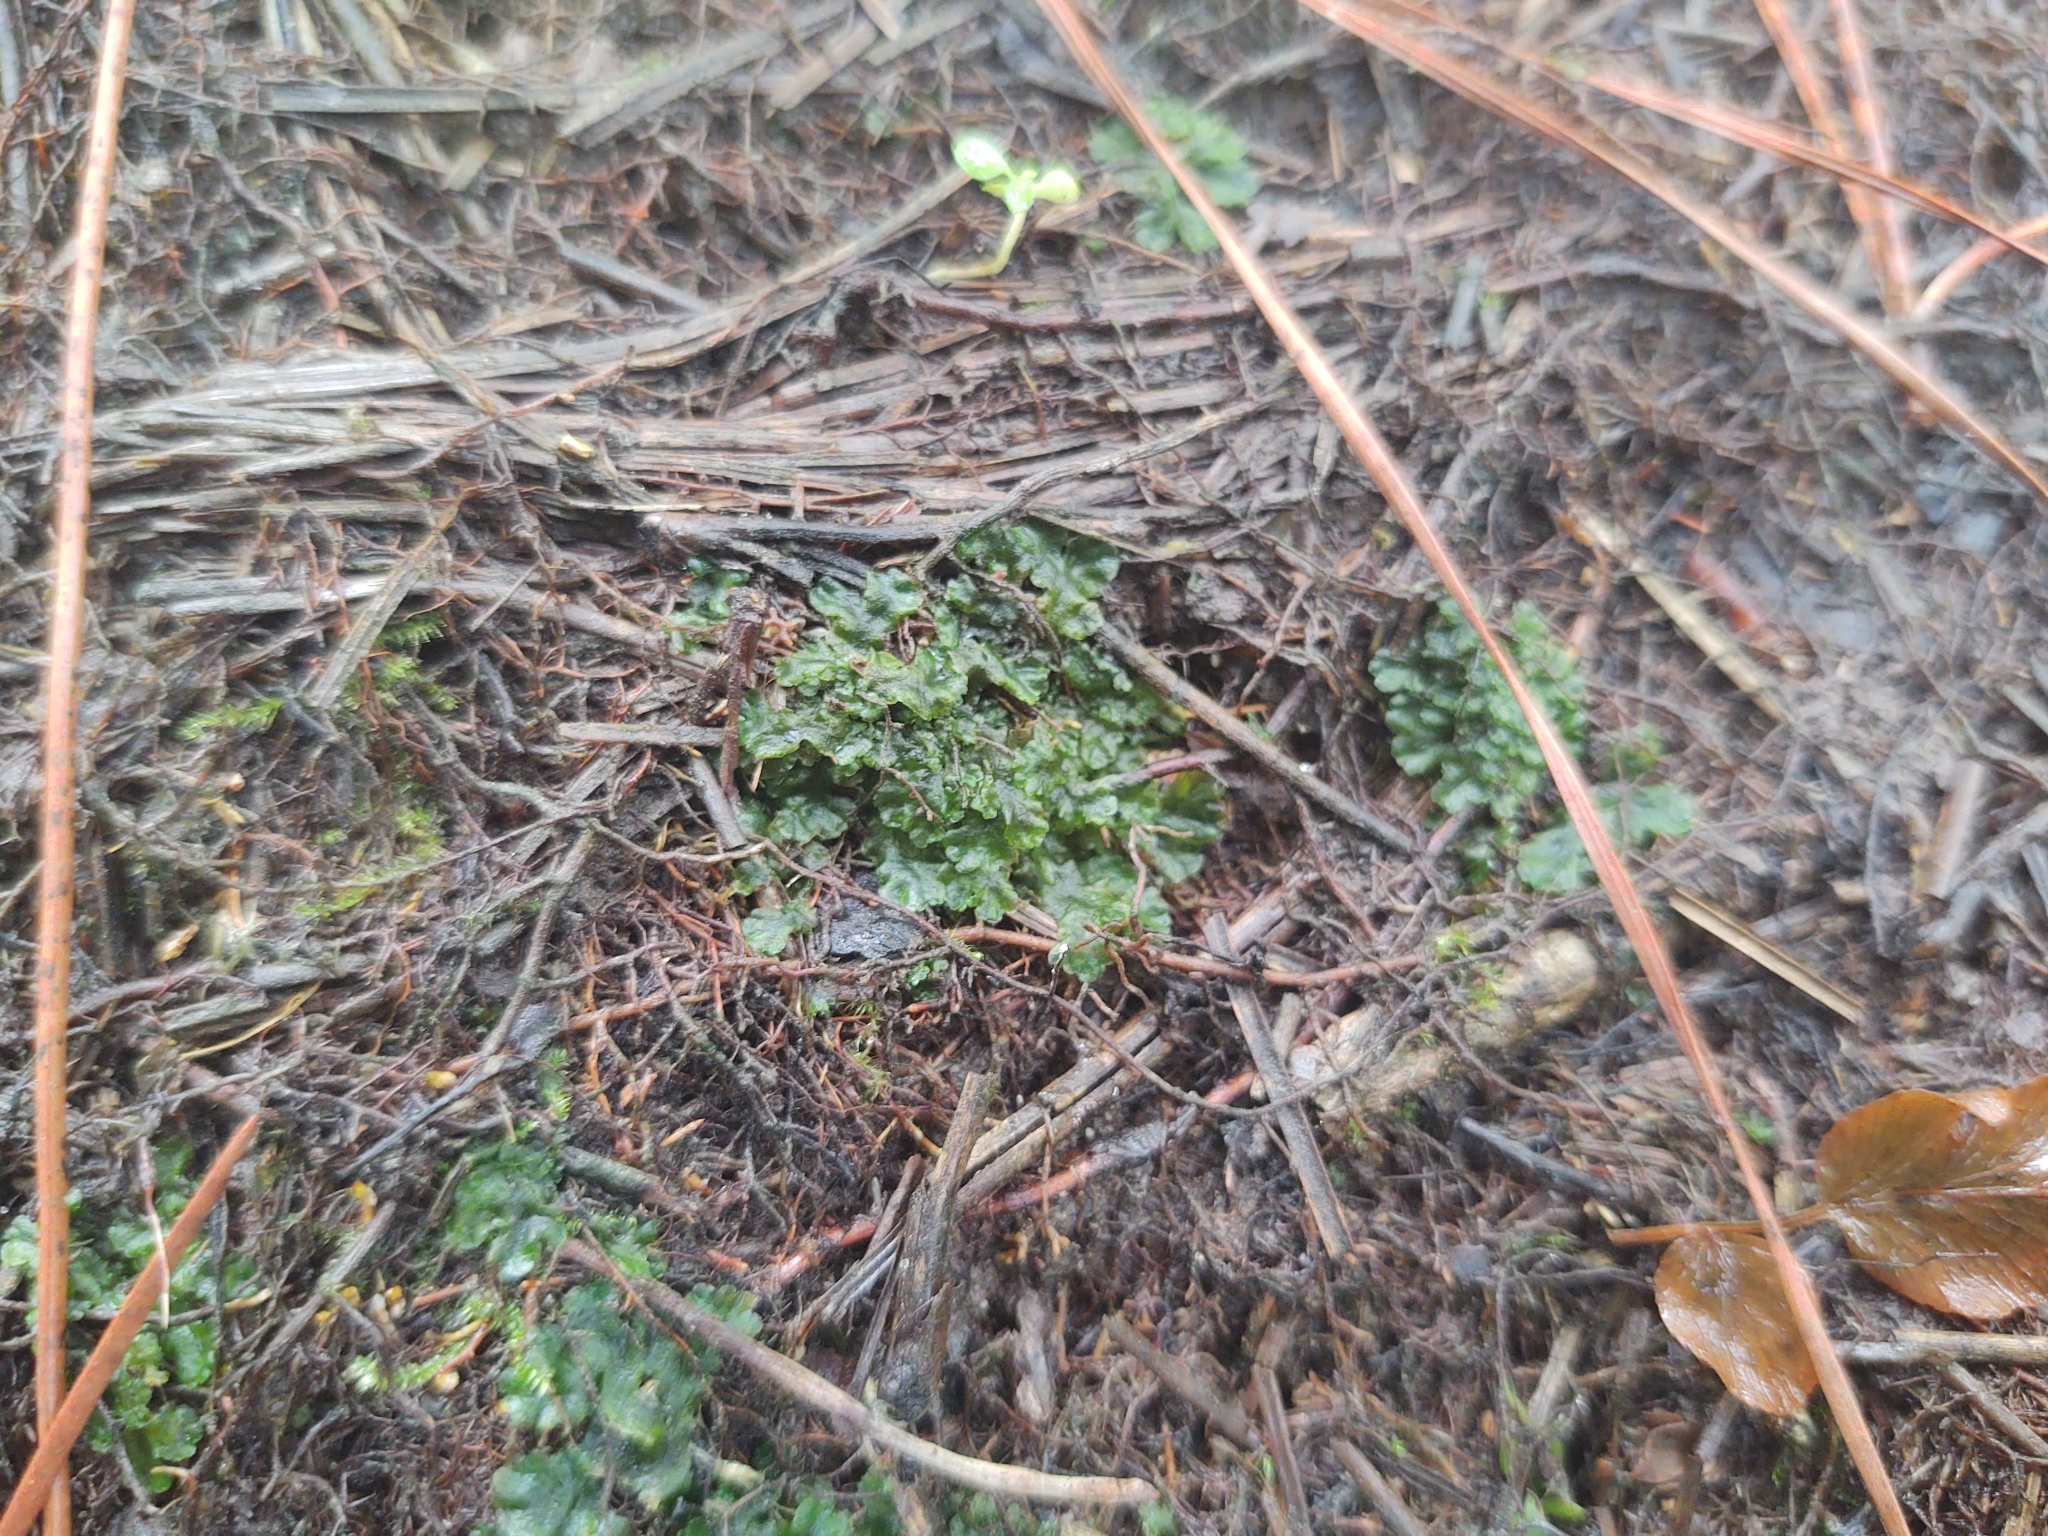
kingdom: Plantae
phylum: Anthocerotophyta
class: Anthocerotopsida
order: Notothyladales
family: Notothyladaceae
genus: Phaeoceros
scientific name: Phaeoceros carolinianus
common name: Carolina hornwort
